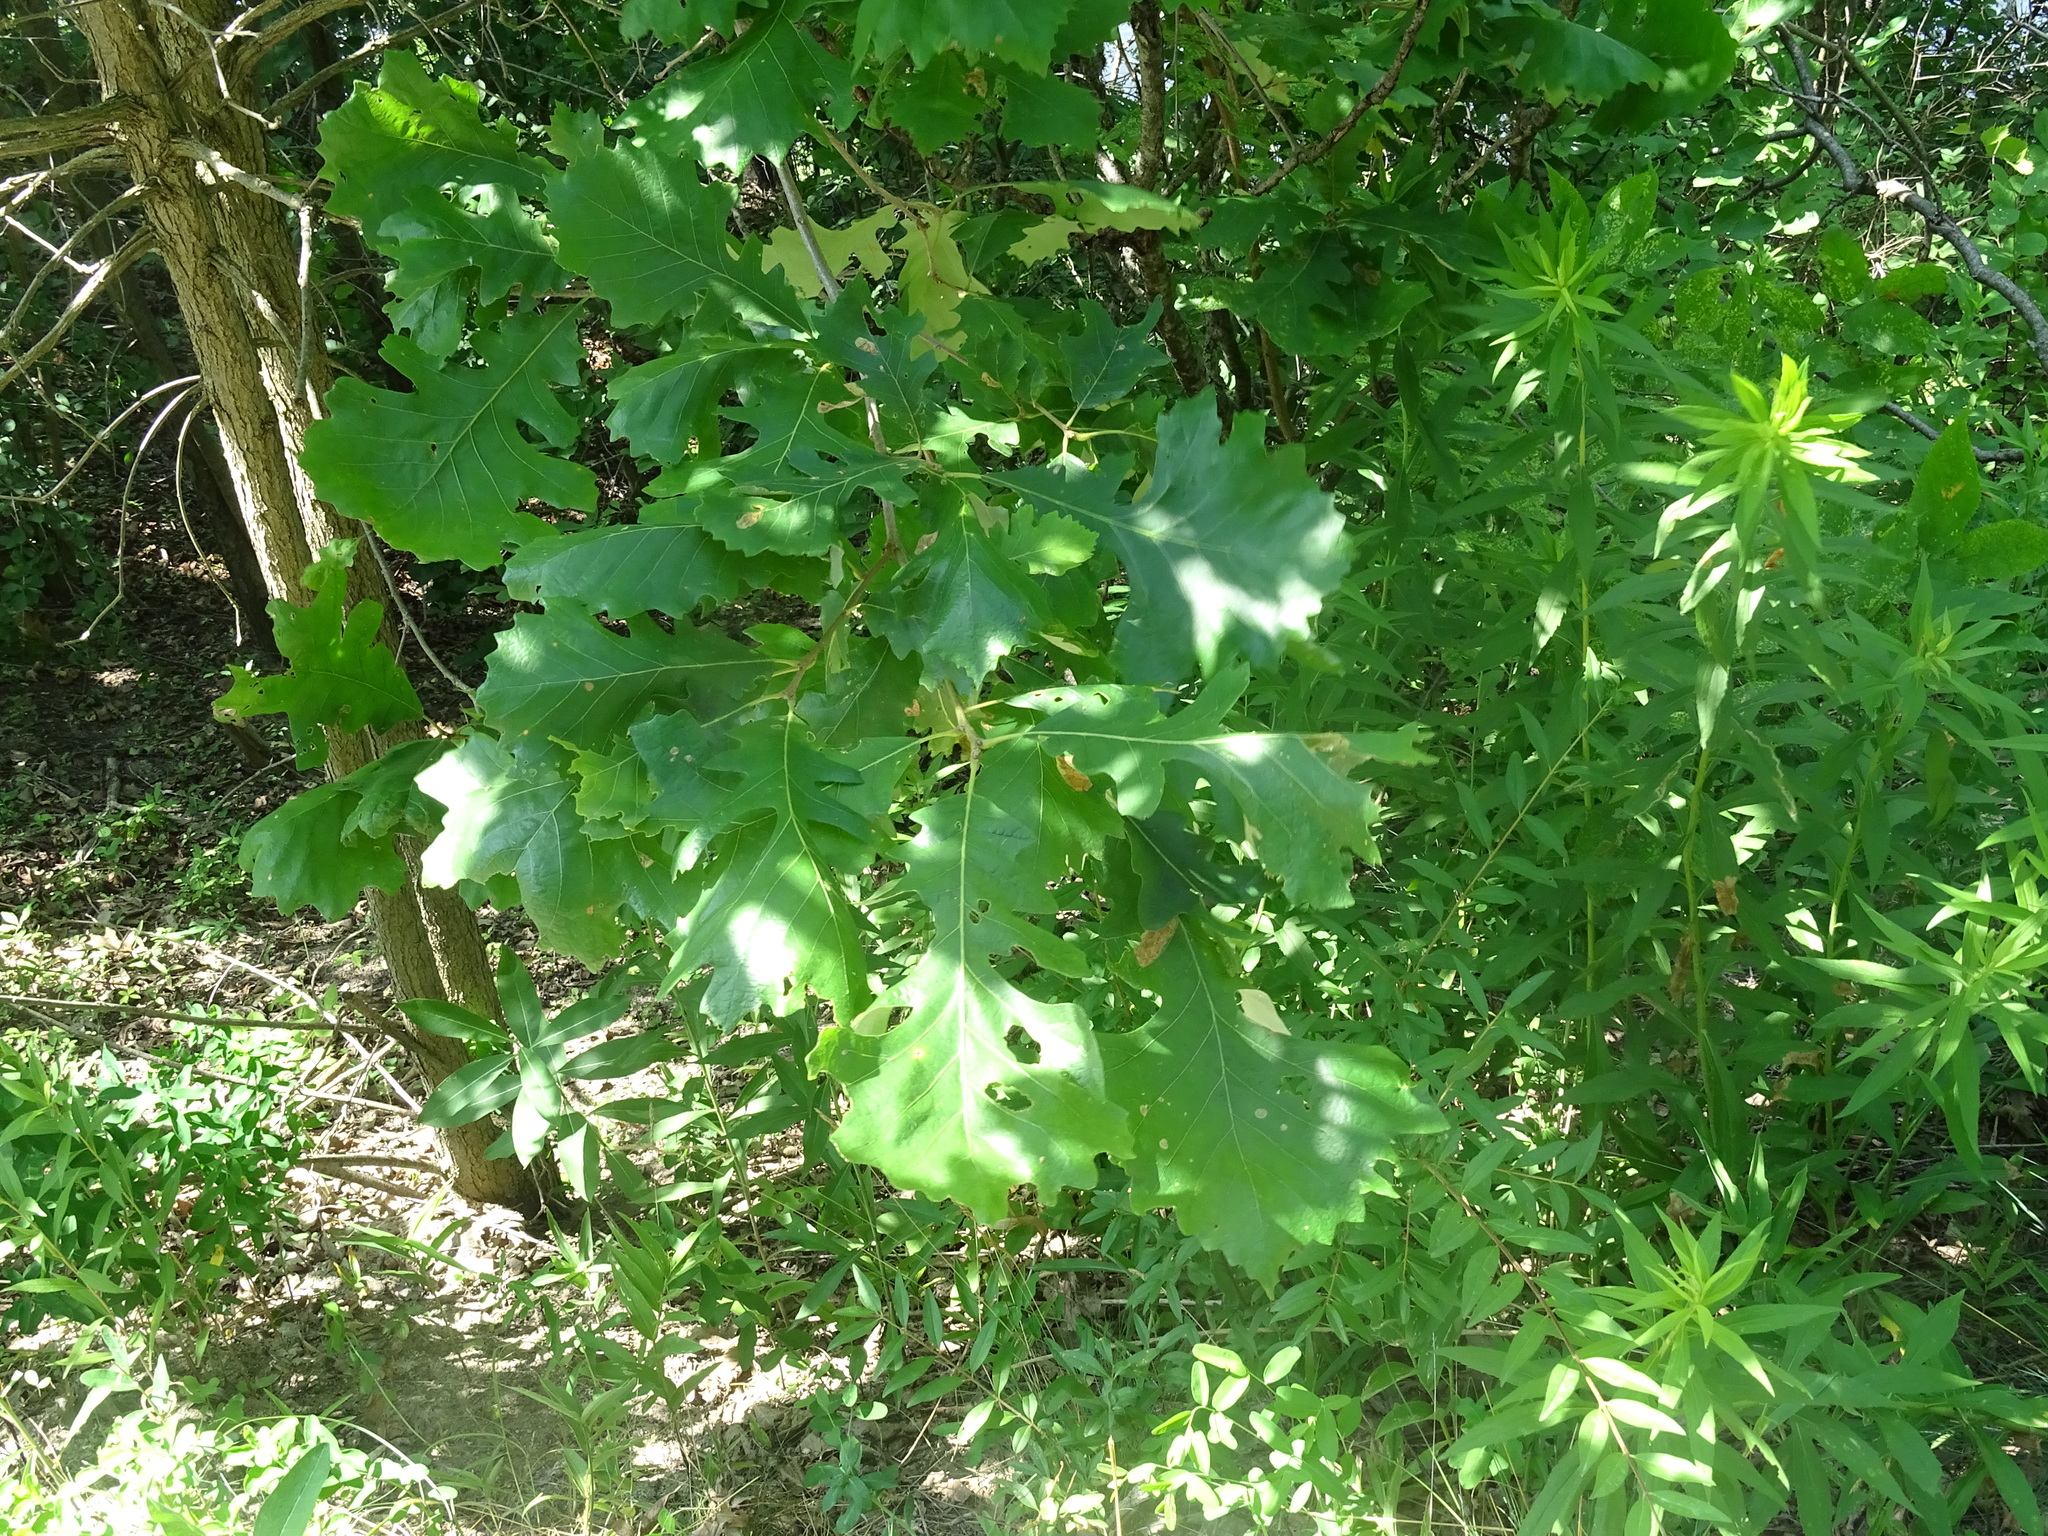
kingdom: Plantae
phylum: Tracheophyta
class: Magnoliopsida
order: Fagales
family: Fagaceae
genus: Quercus
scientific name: Quercus macrocarpa
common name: Bur oak
